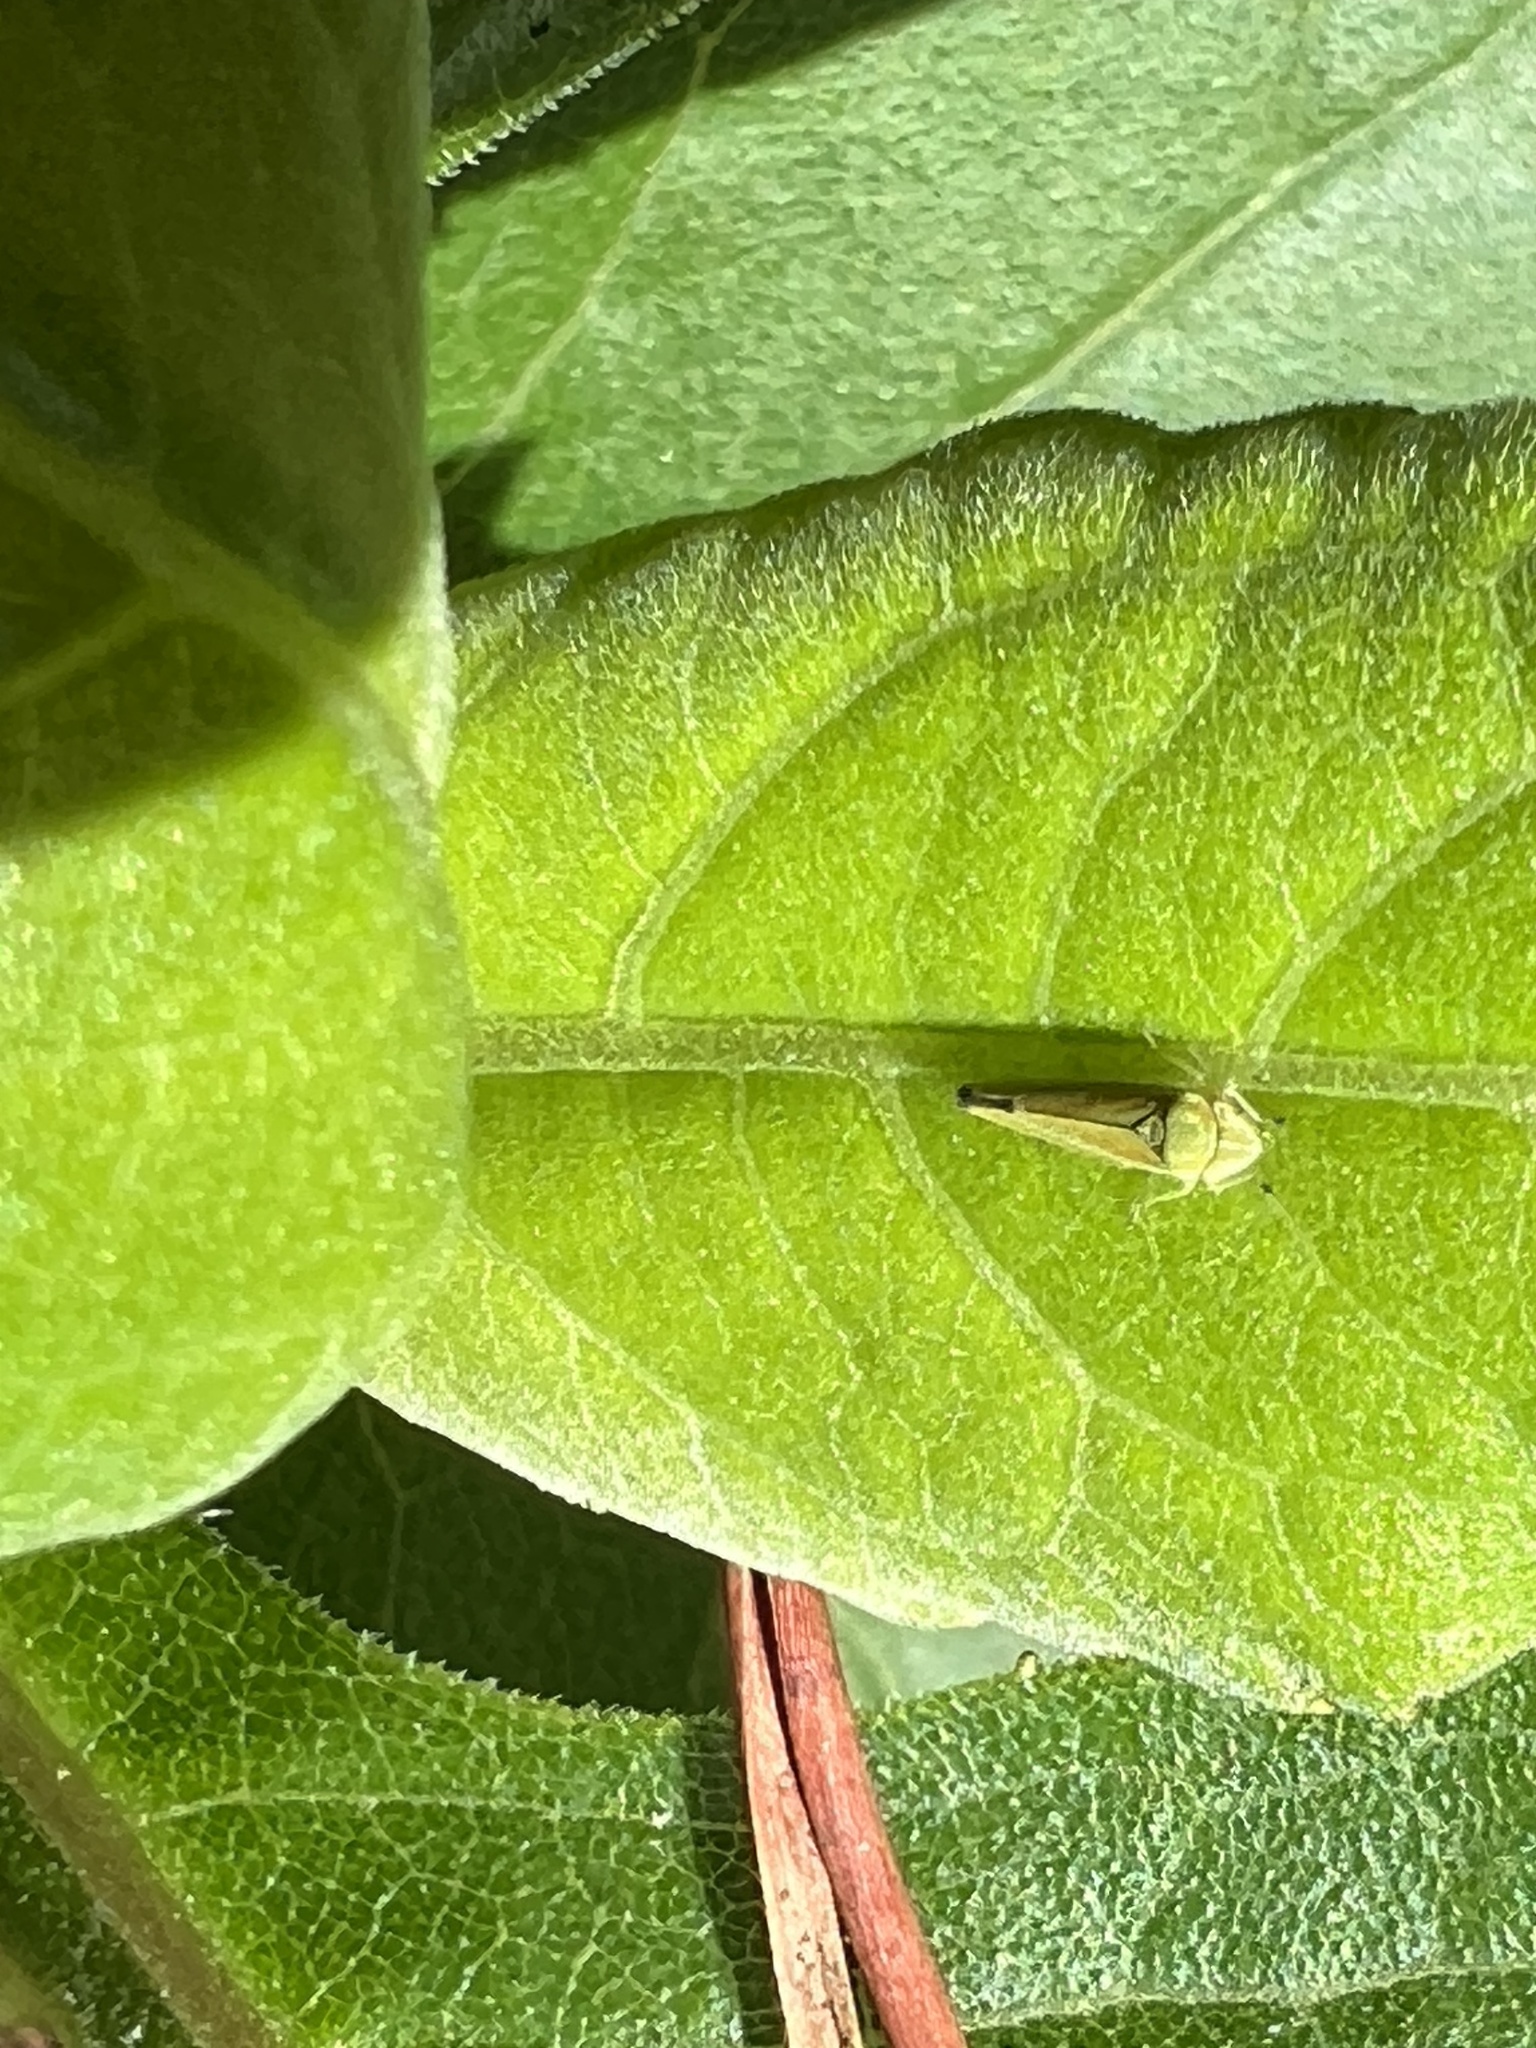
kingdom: Animalia
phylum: Arthropoda
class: Insecta
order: Hemiptera
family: Cicadellidae
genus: Graphocephala
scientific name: Graphocephala versuta
